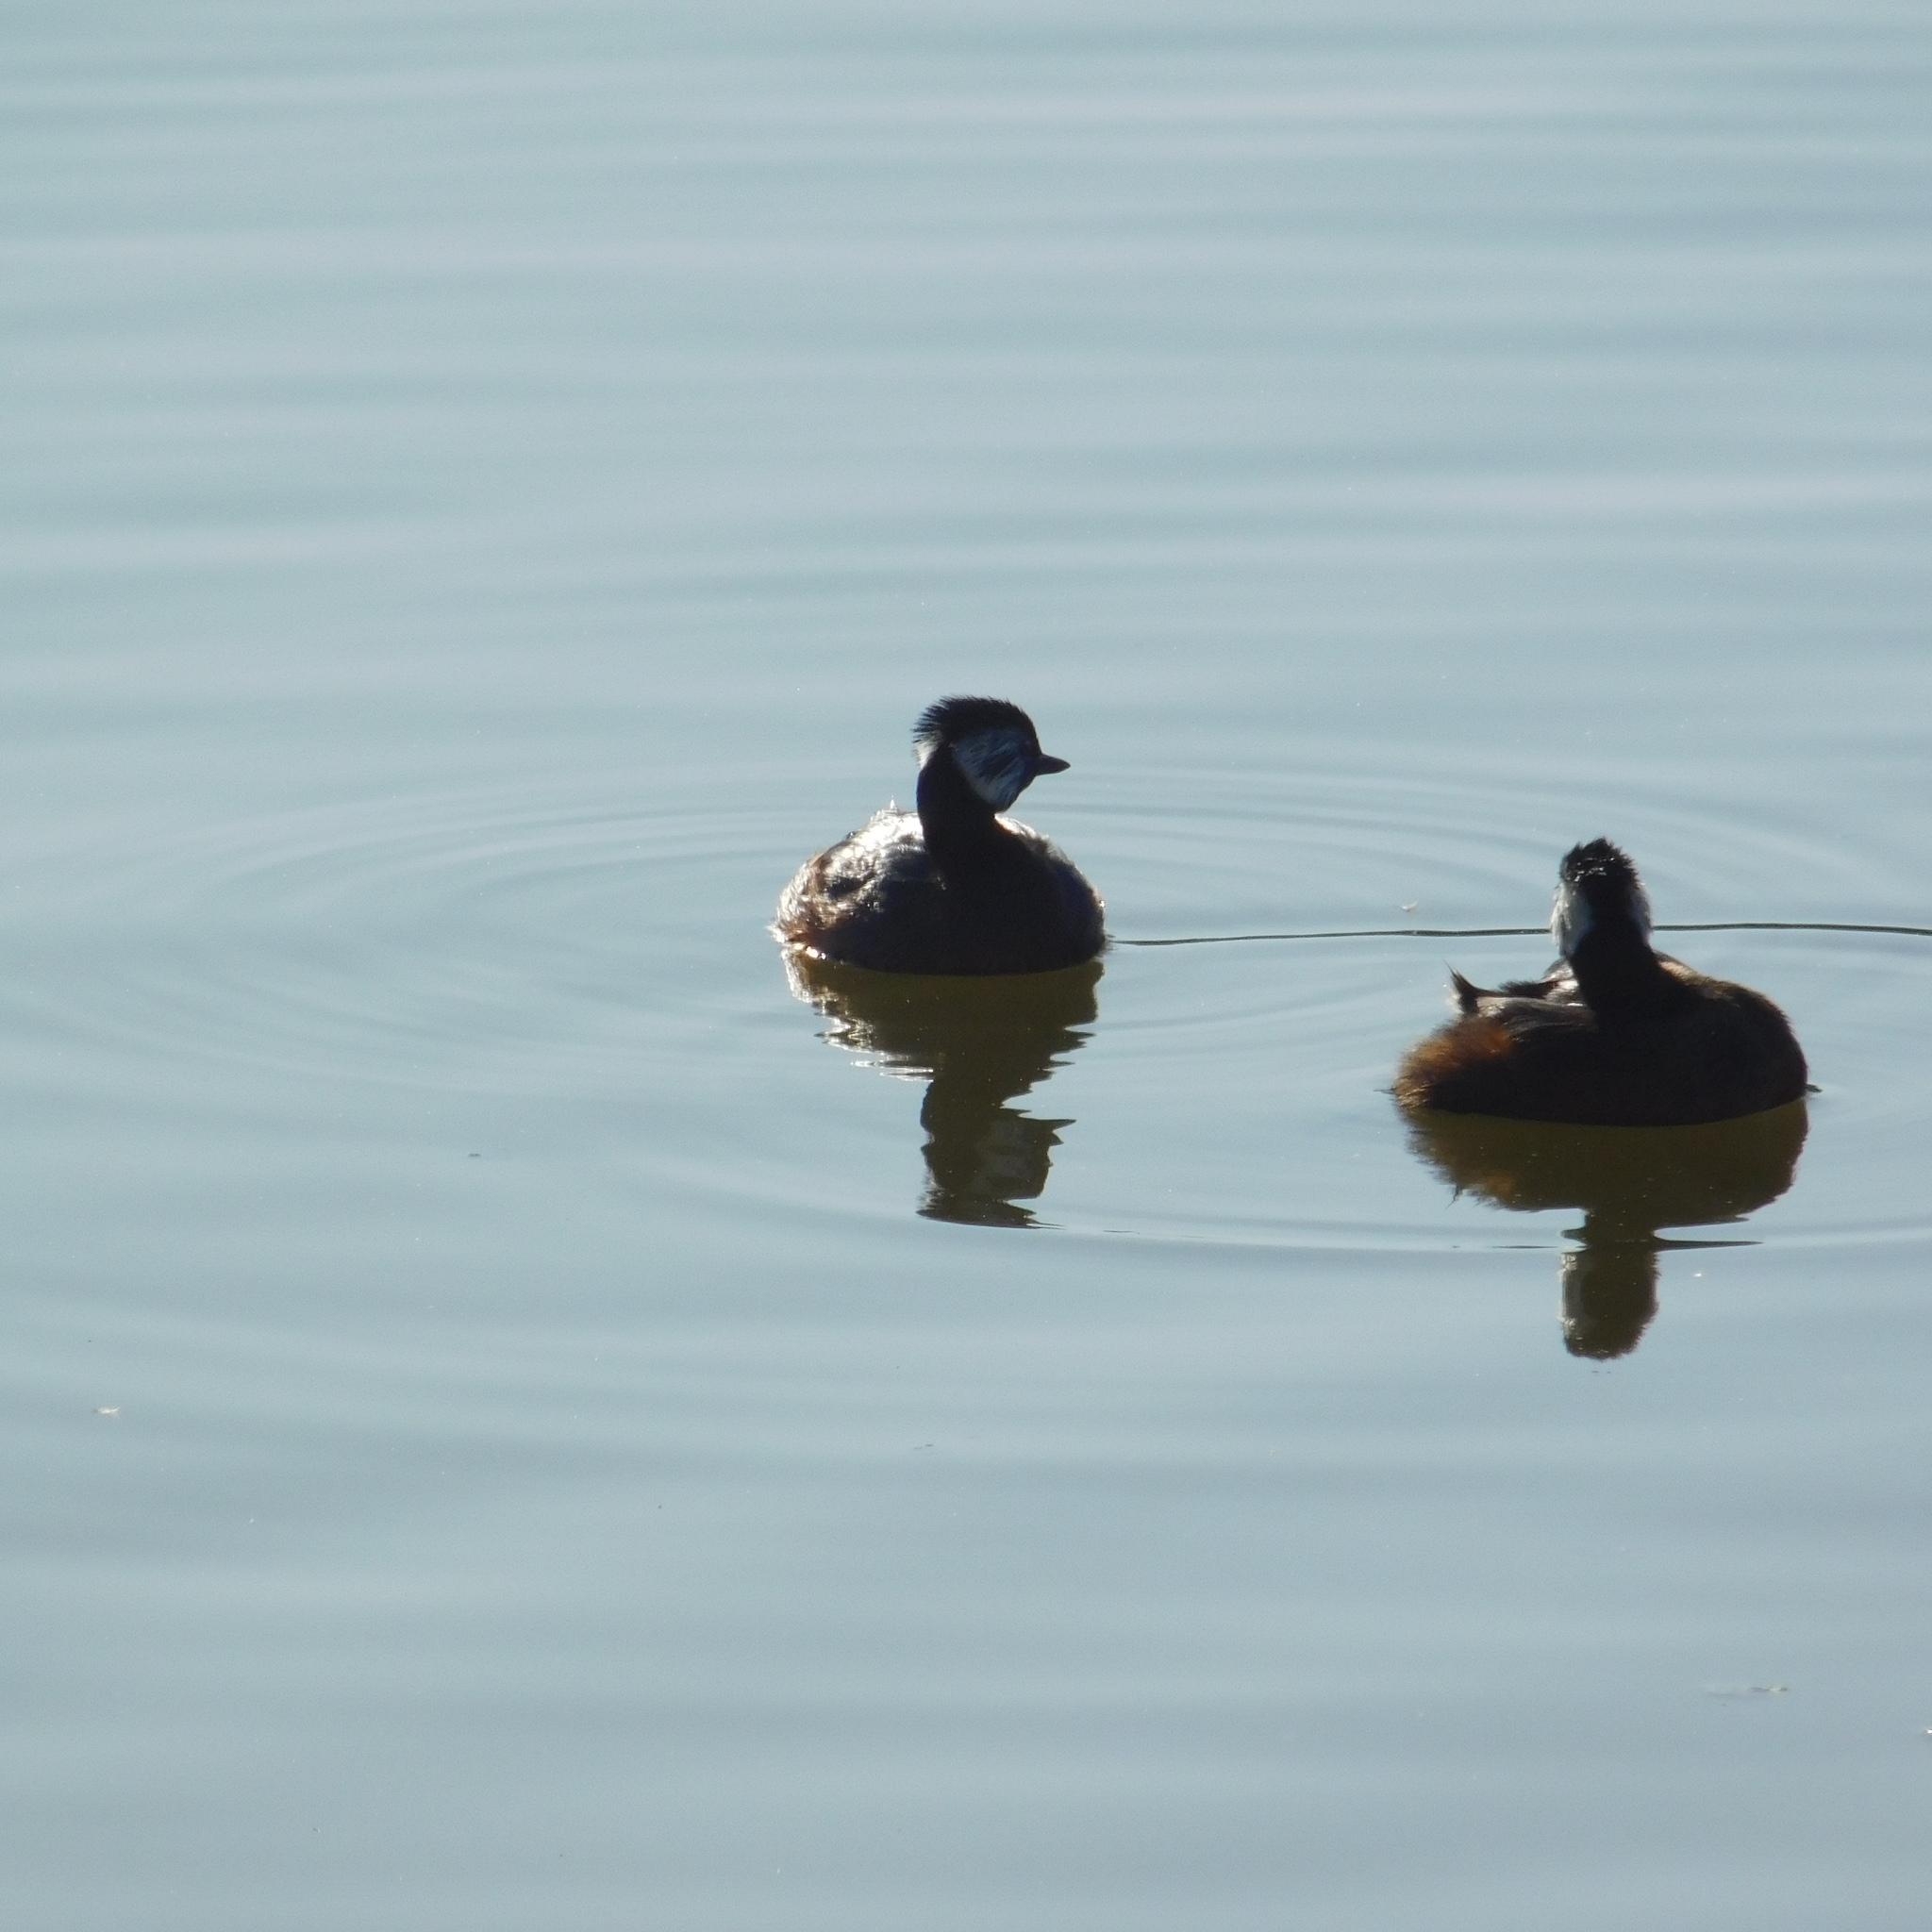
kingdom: Animalia
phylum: Chordata
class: Aves
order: Podicipediformes
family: Podicipedidae
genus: Rollandia
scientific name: Rollandia rolland
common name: White-tufted grebe
